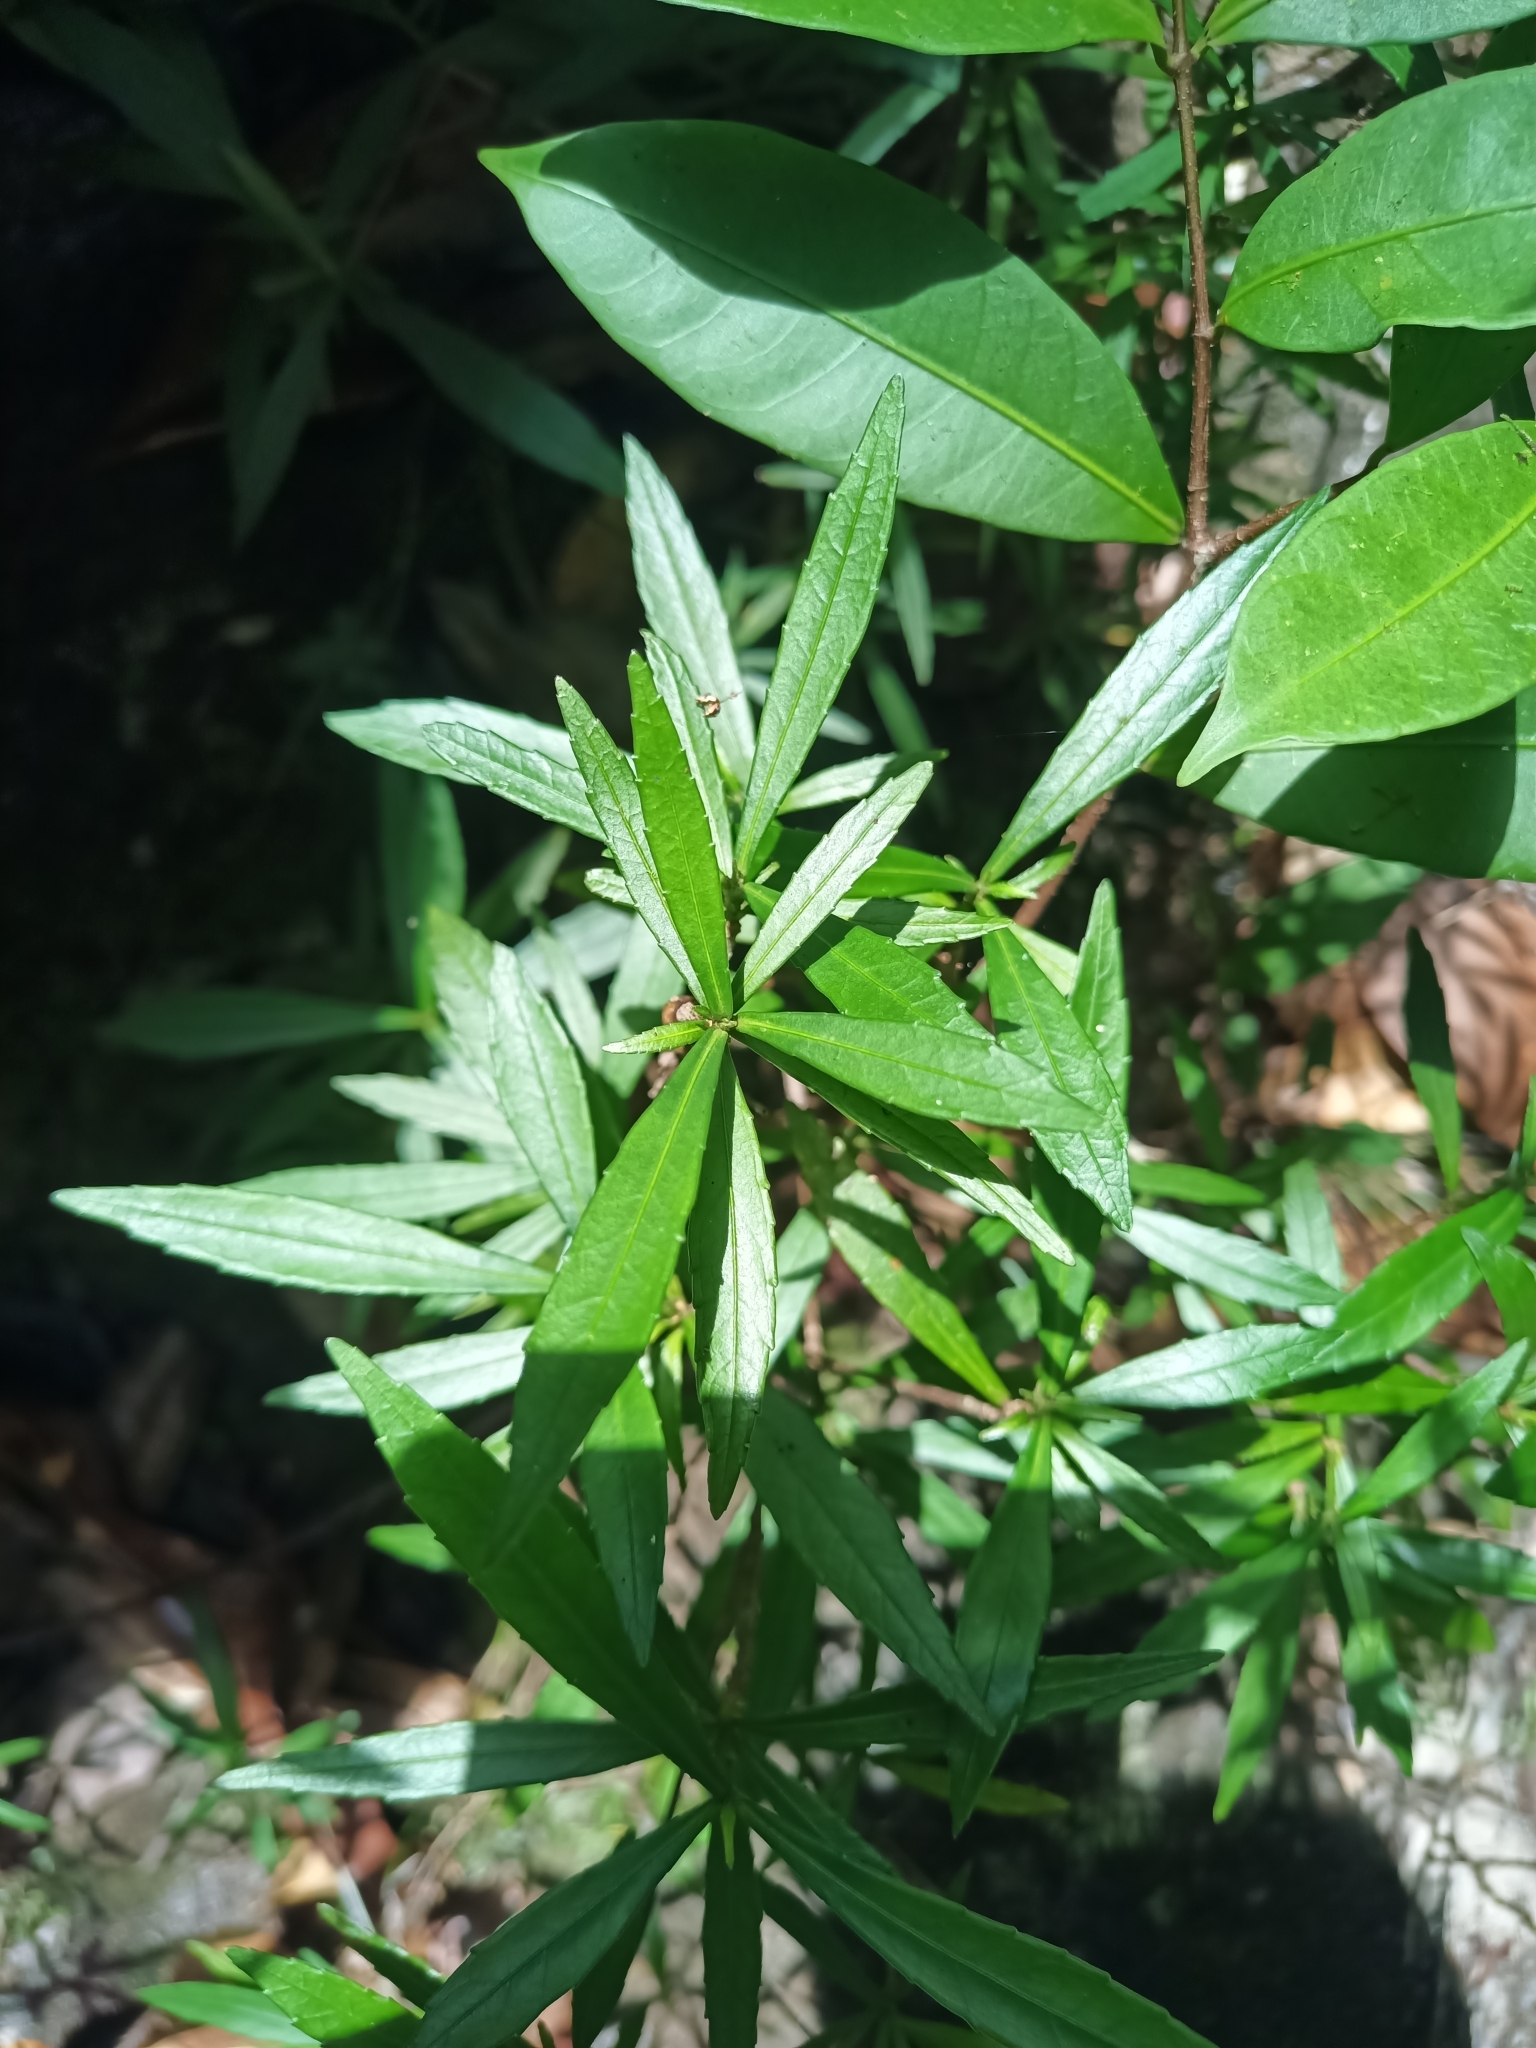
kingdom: Plantae
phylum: Tracheophyta
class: Magnoliopsida
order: Malpighiales
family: Turneraceae
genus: Turnera
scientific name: Turnera rupestris
